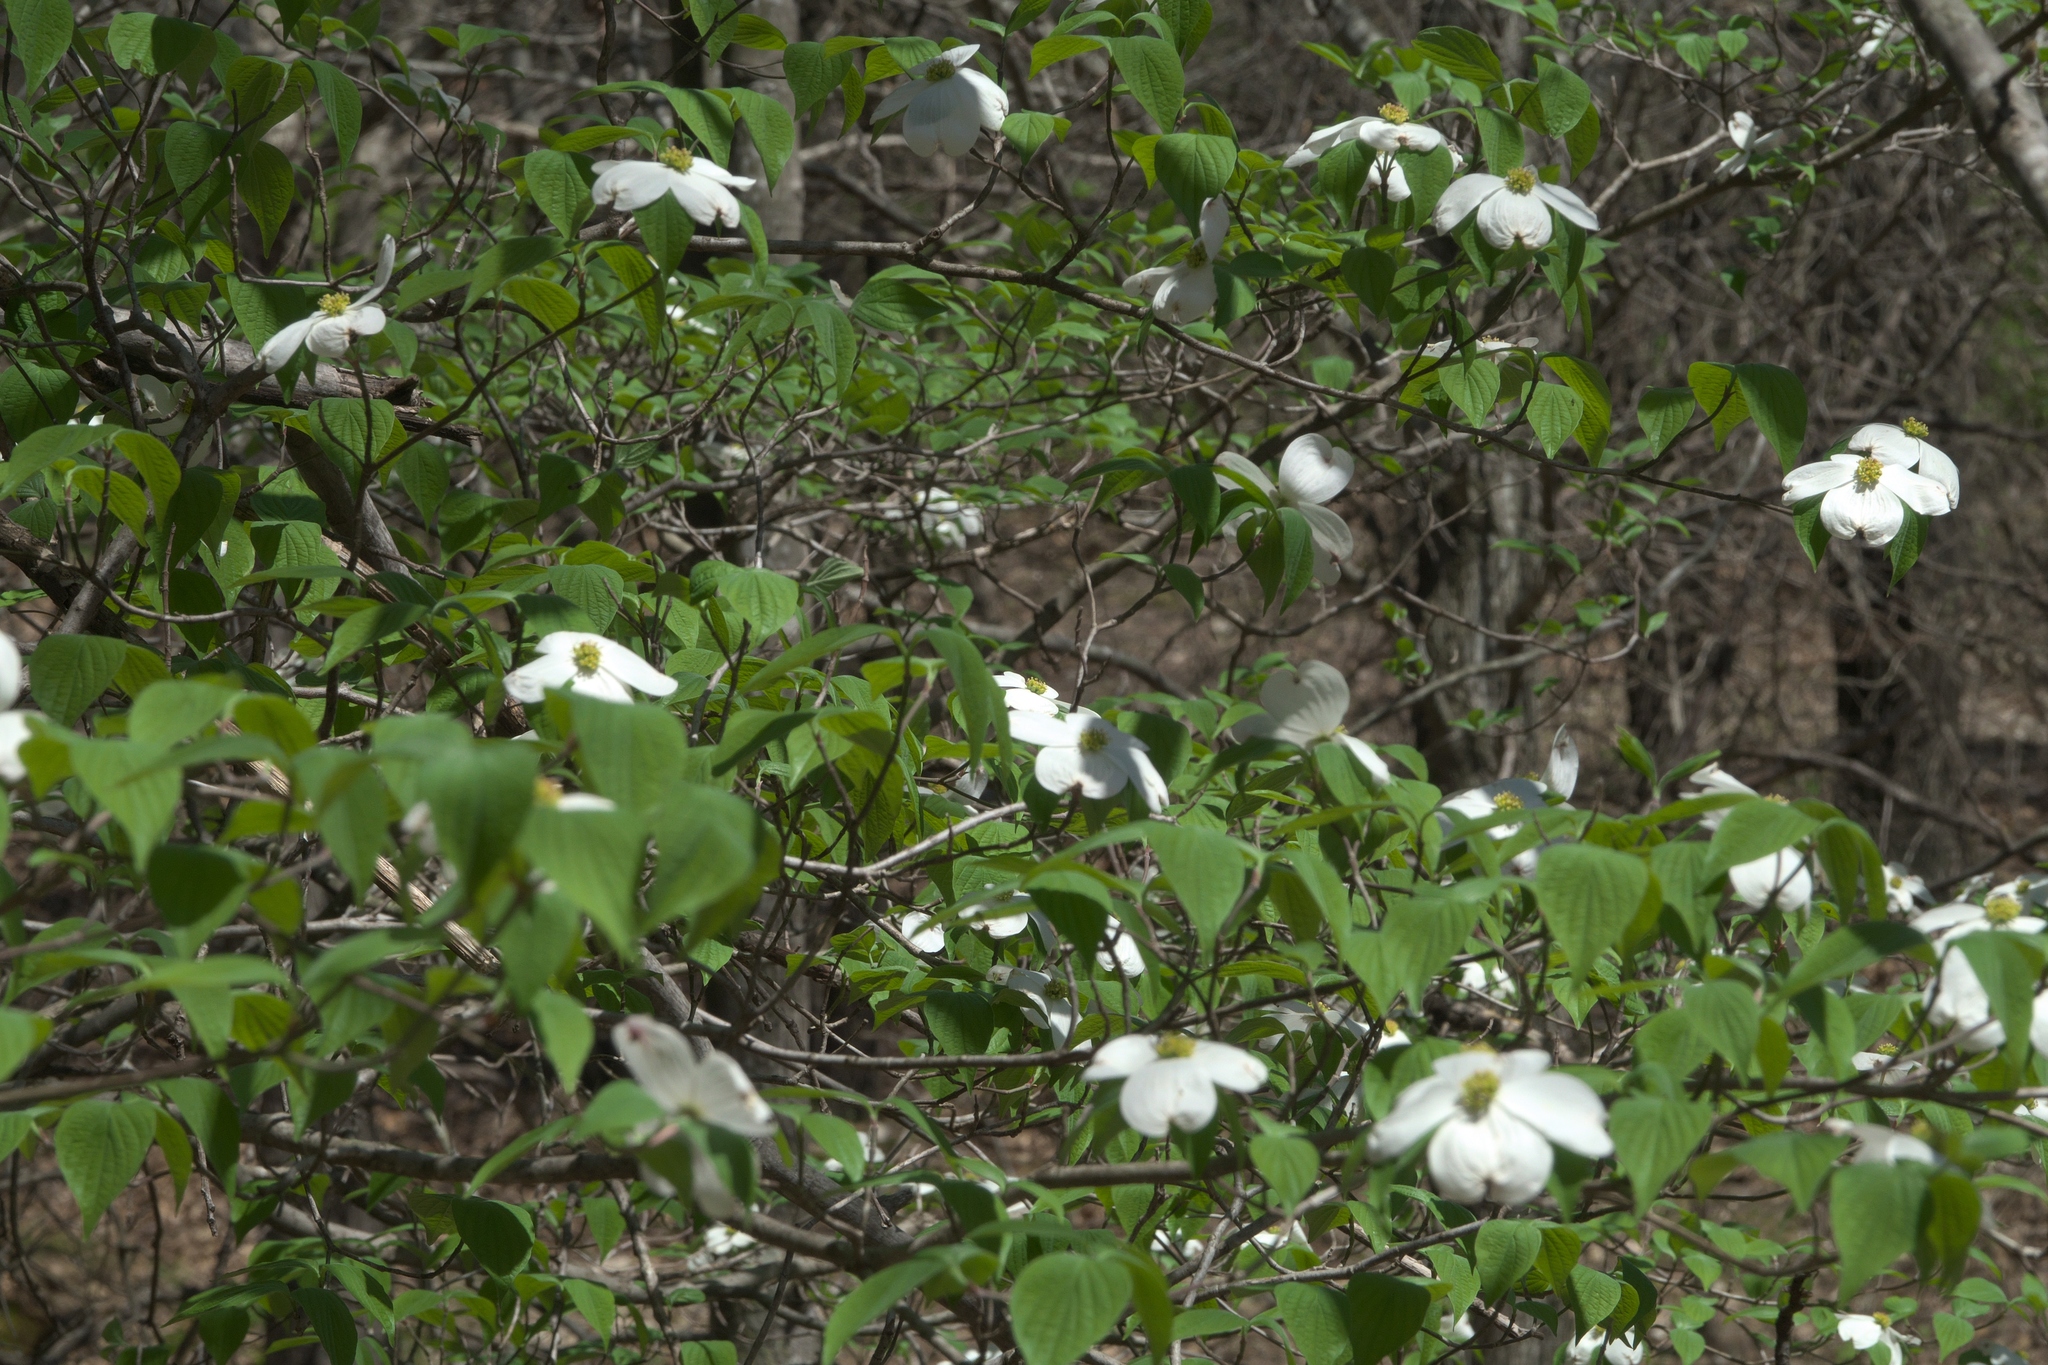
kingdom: Plantae
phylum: Tracheophyta
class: Magnoliopsida
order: Cornales
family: Cornaceae
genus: Cornus
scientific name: Cornus florida
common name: Flowering dogwood
